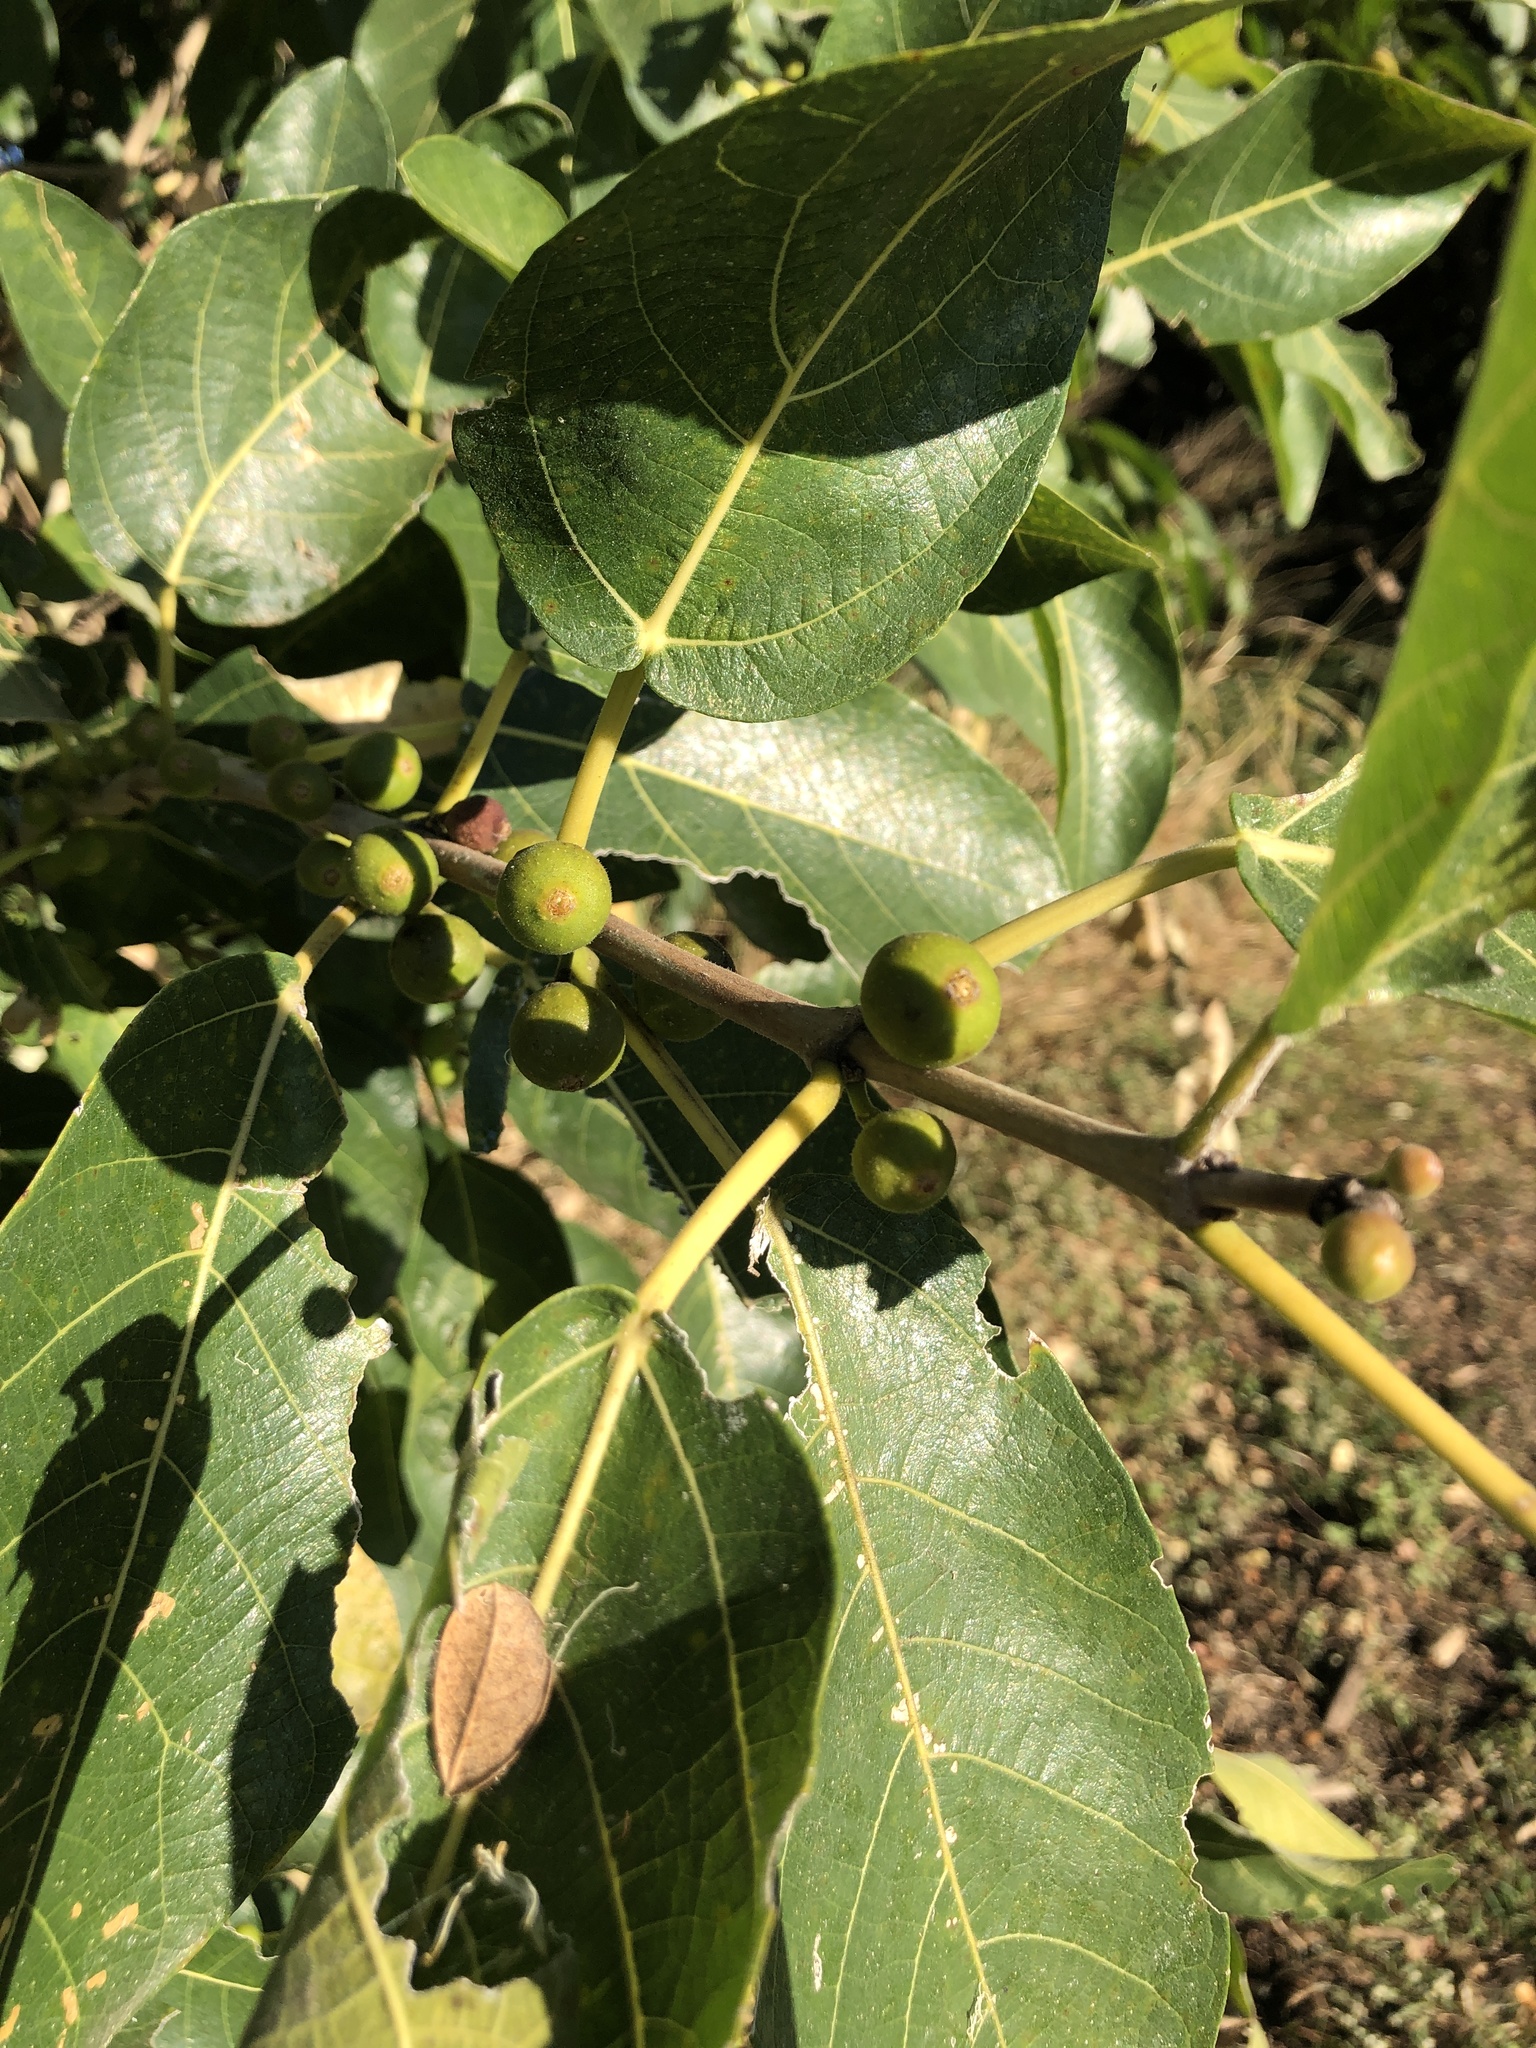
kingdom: Plantae
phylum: Tracheophyta
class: Magnoliopsida
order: Rosales
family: Moraceae
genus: Ficus
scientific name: Ficus opposita
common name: Figwood
